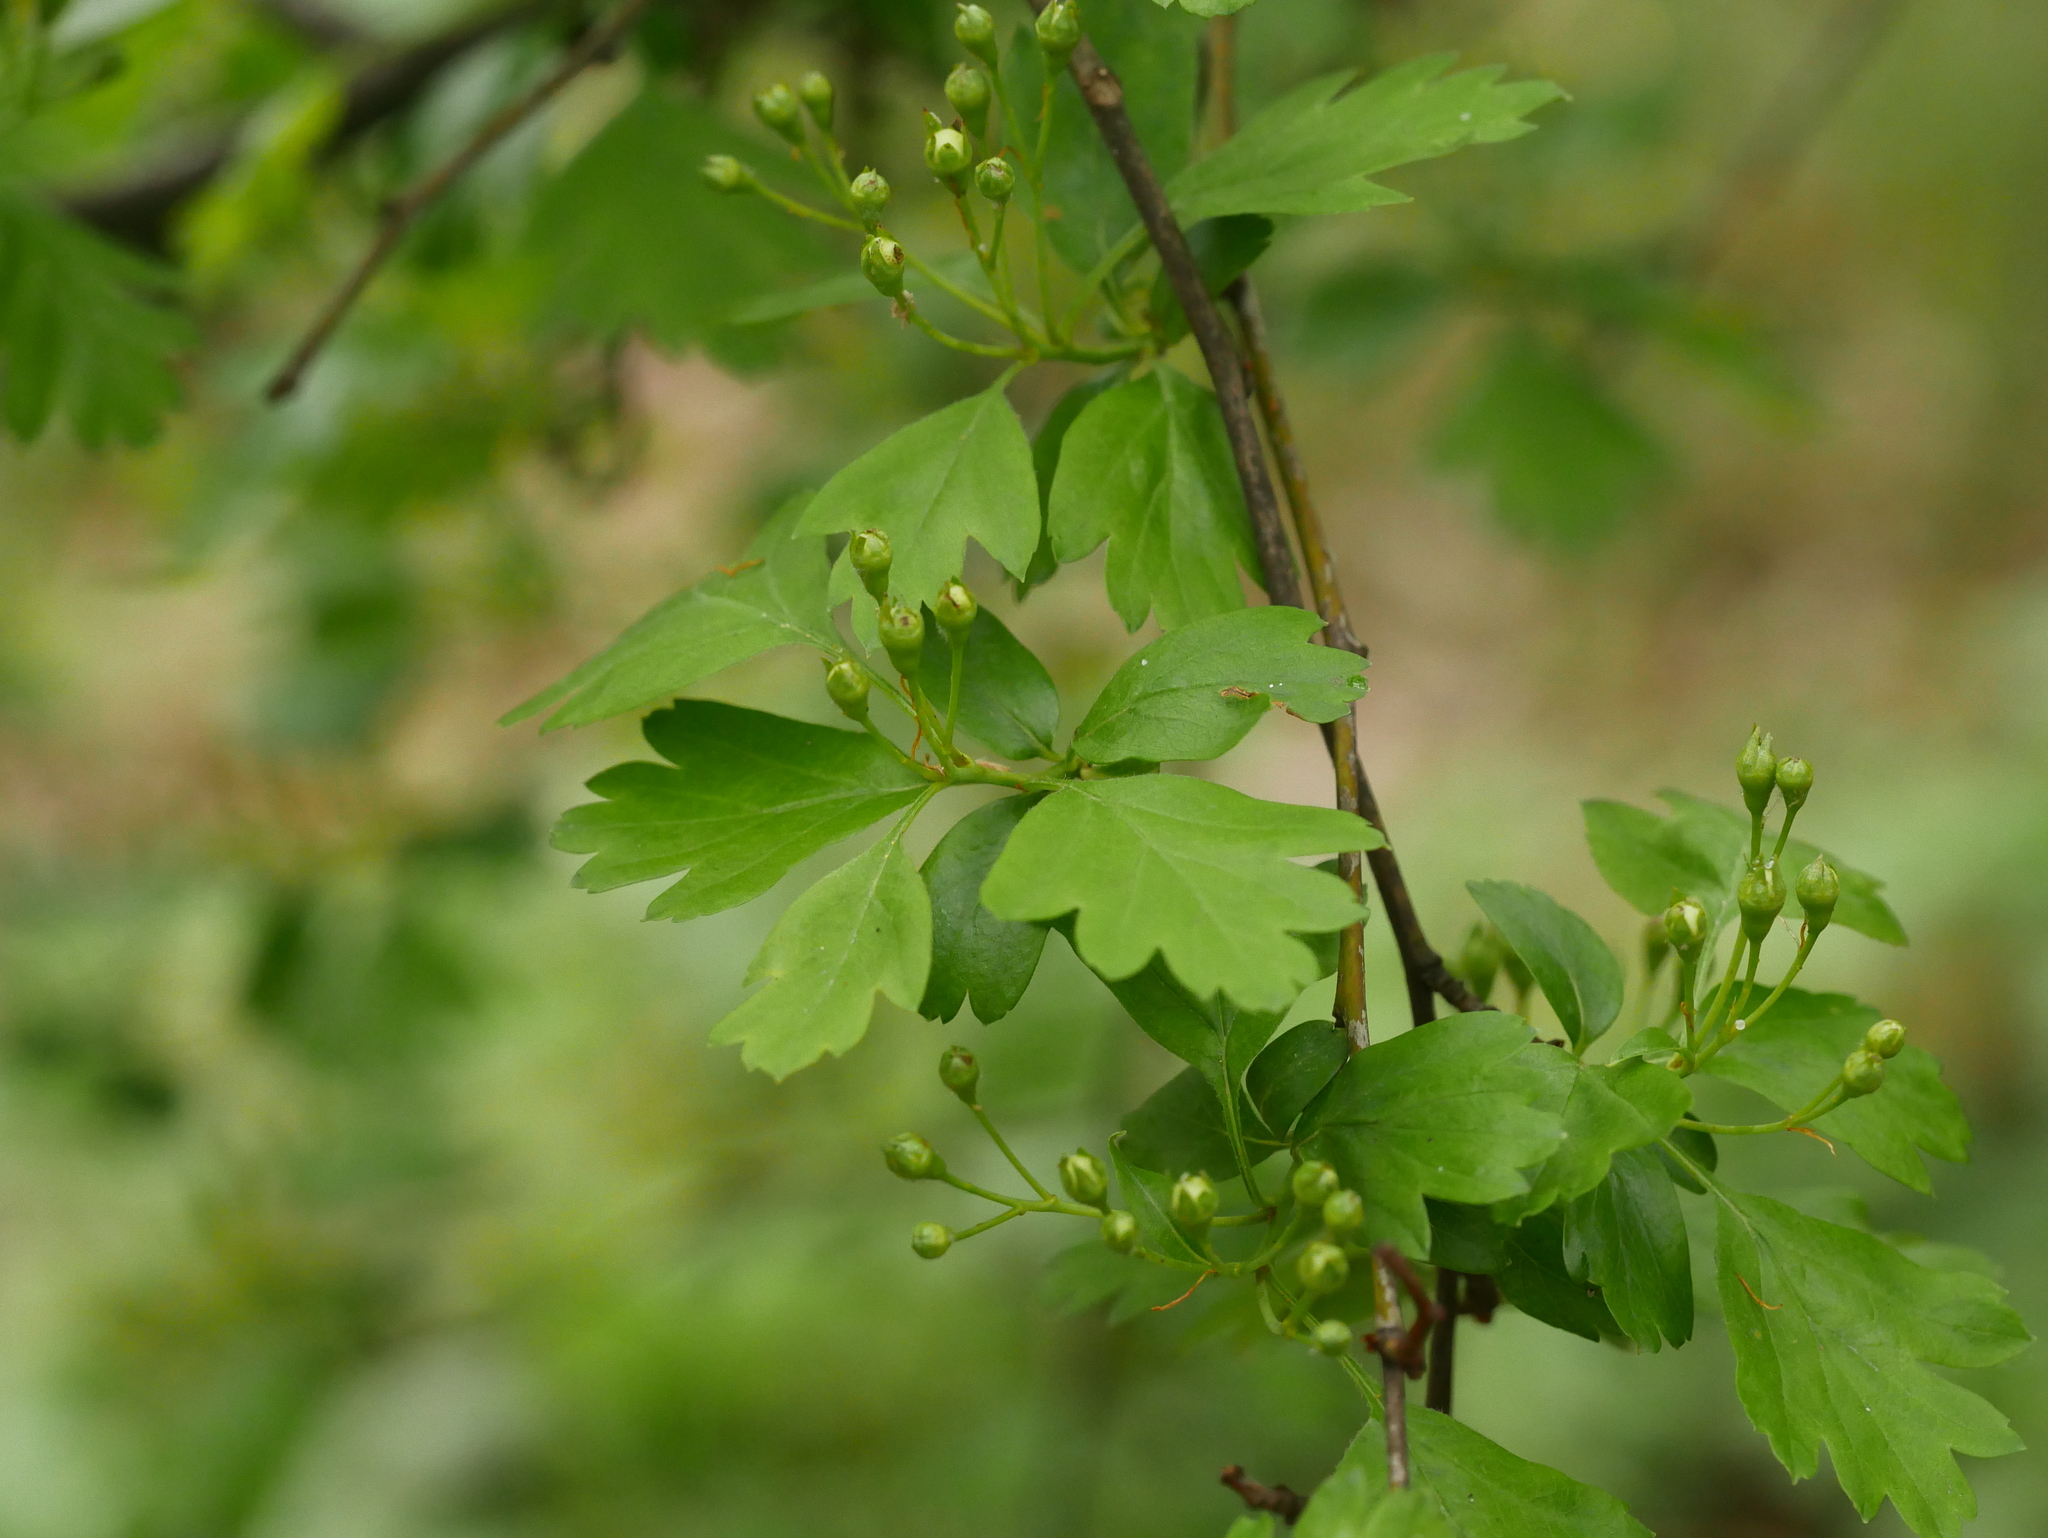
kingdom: Plantae
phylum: Tracheophyta
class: Magnoliopsida
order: Rosales
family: Rosaceae
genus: Crataegus
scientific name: Crataegus monogyna
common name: Hawthorn
